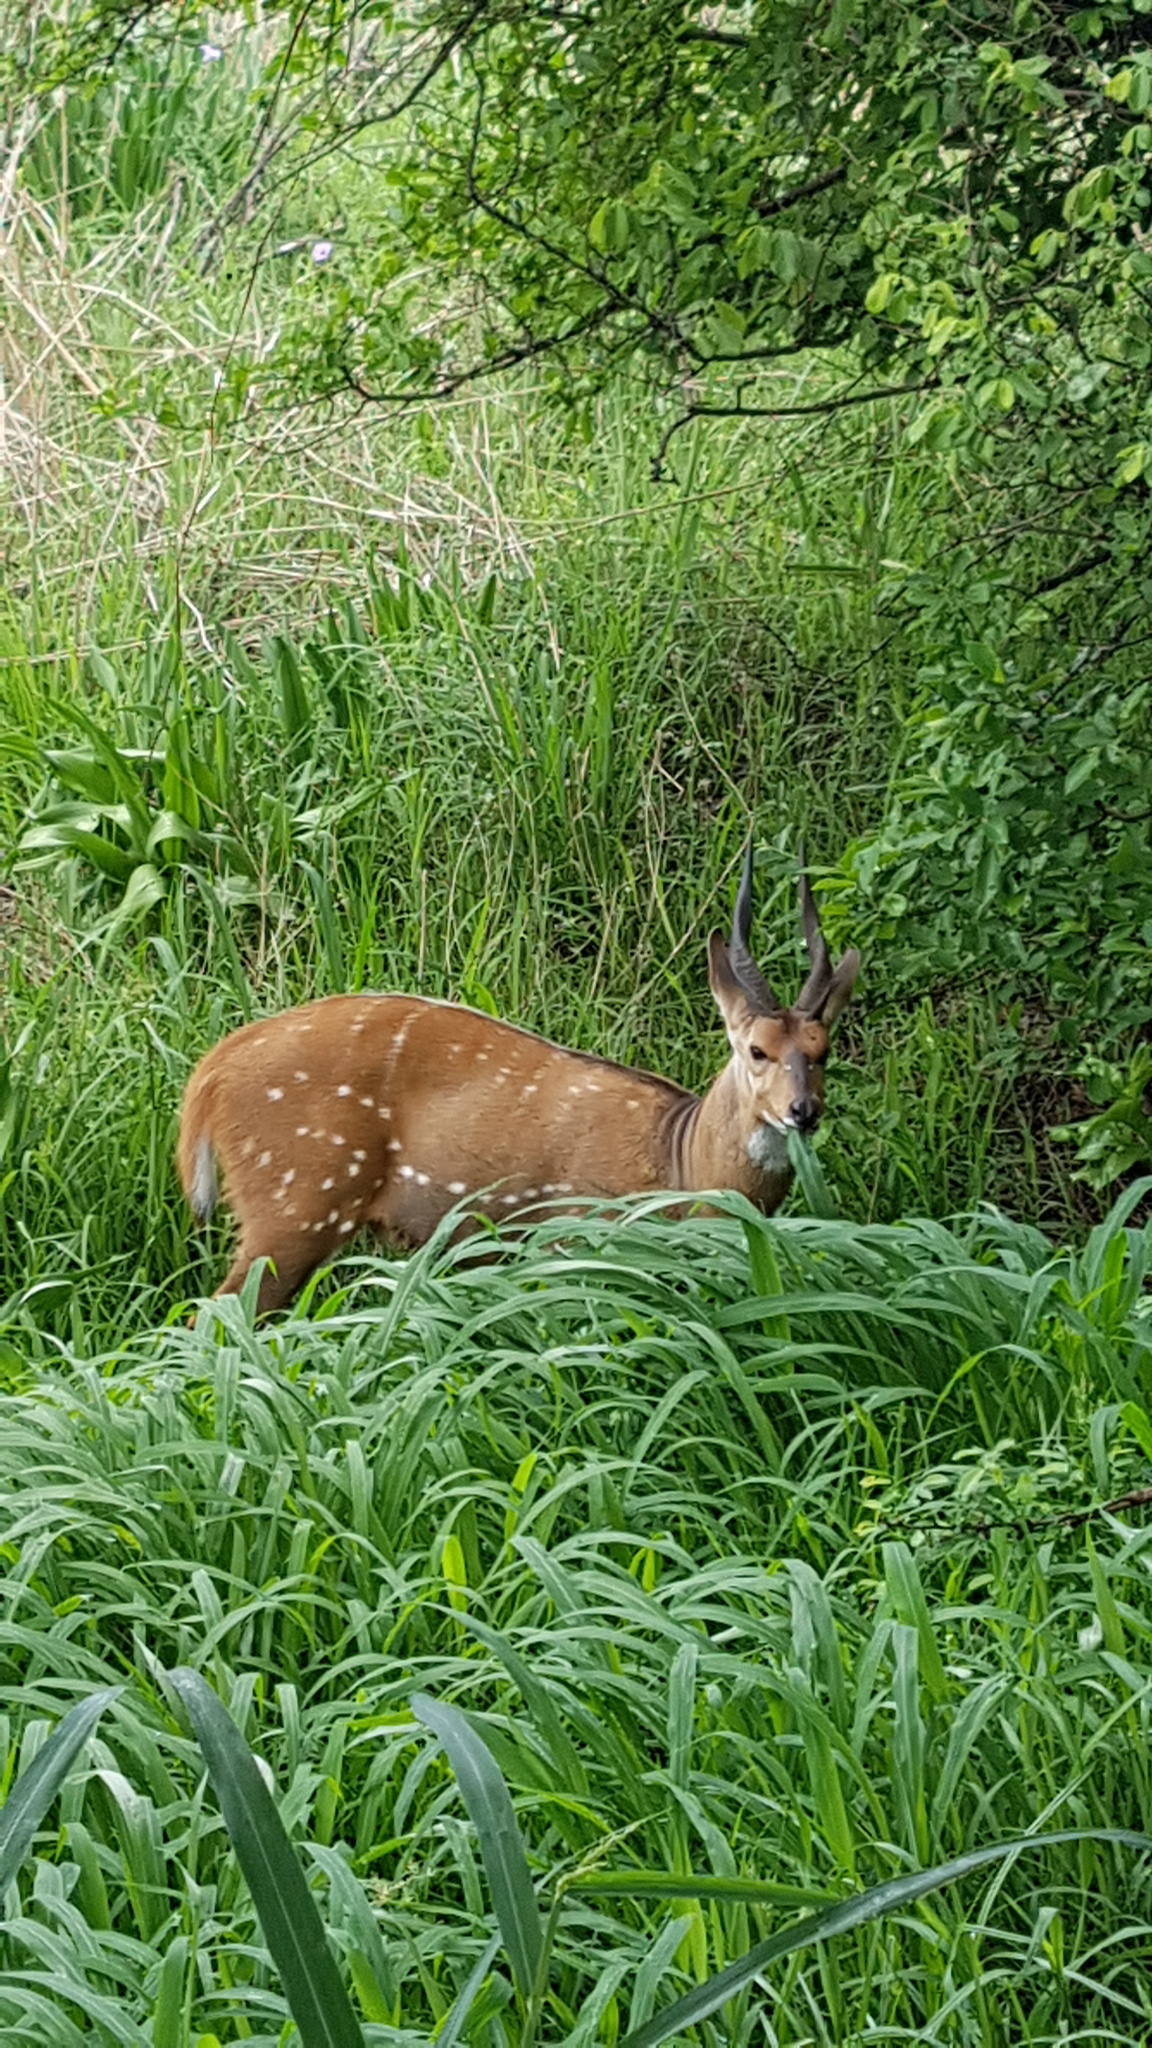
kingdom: Animalia
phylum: Chordata
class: Mammalia
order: Artiodactyla
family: Bovidae
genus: Tragelaphus
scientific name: Tragelaphus scriptus
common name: Bushbuck
